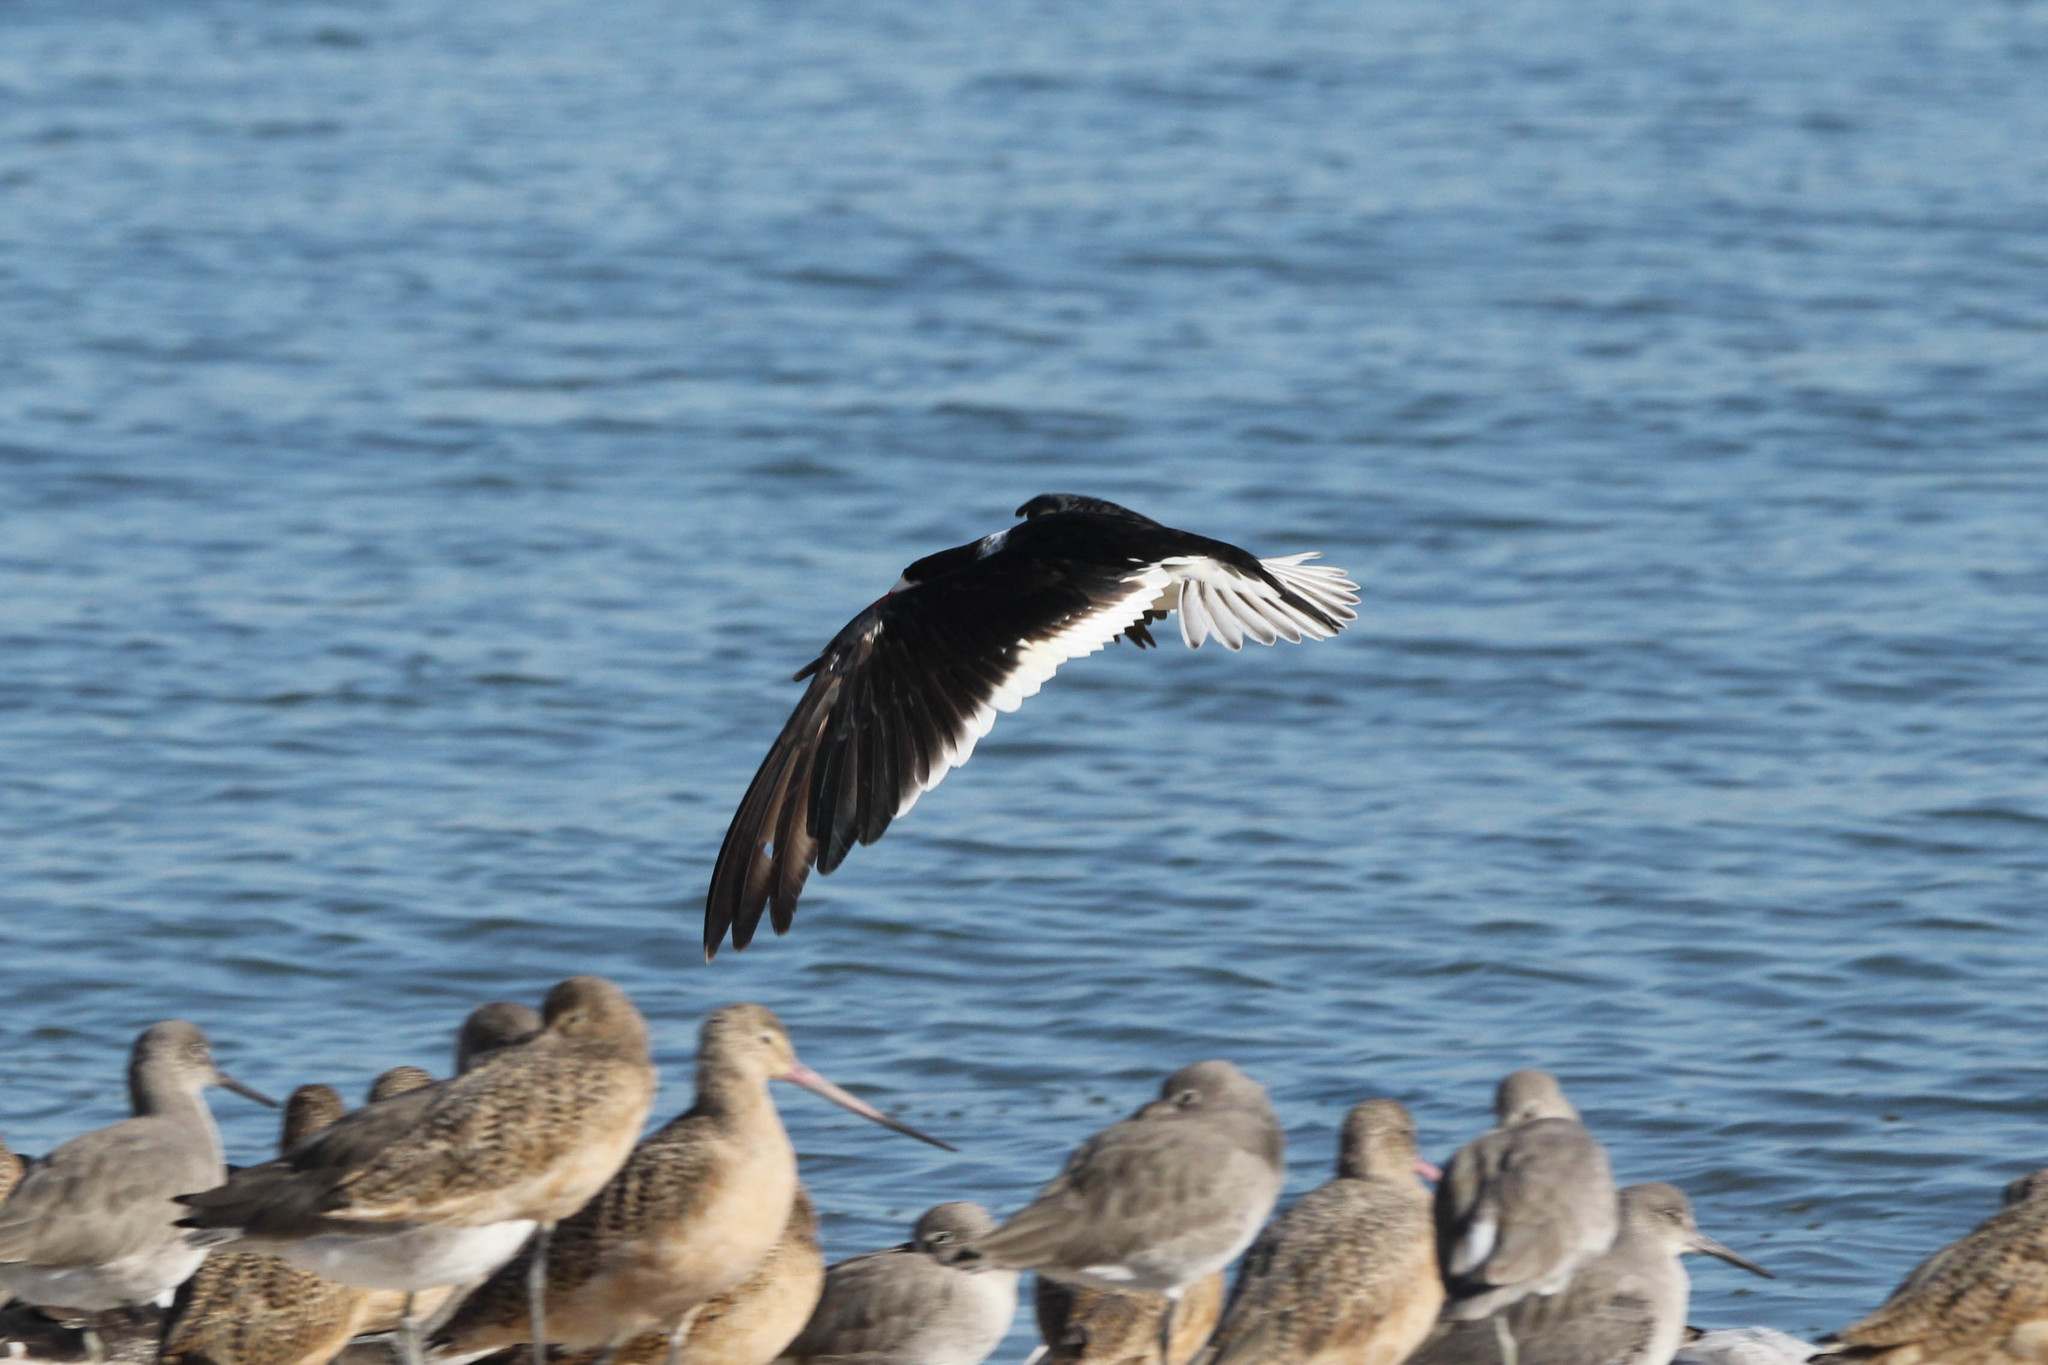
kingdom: Animalia
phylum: Chordata
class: Aves
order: Charadriiformes
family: Laridae
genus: Rynchops
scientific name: Rynchops niger
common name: Black skimmer
